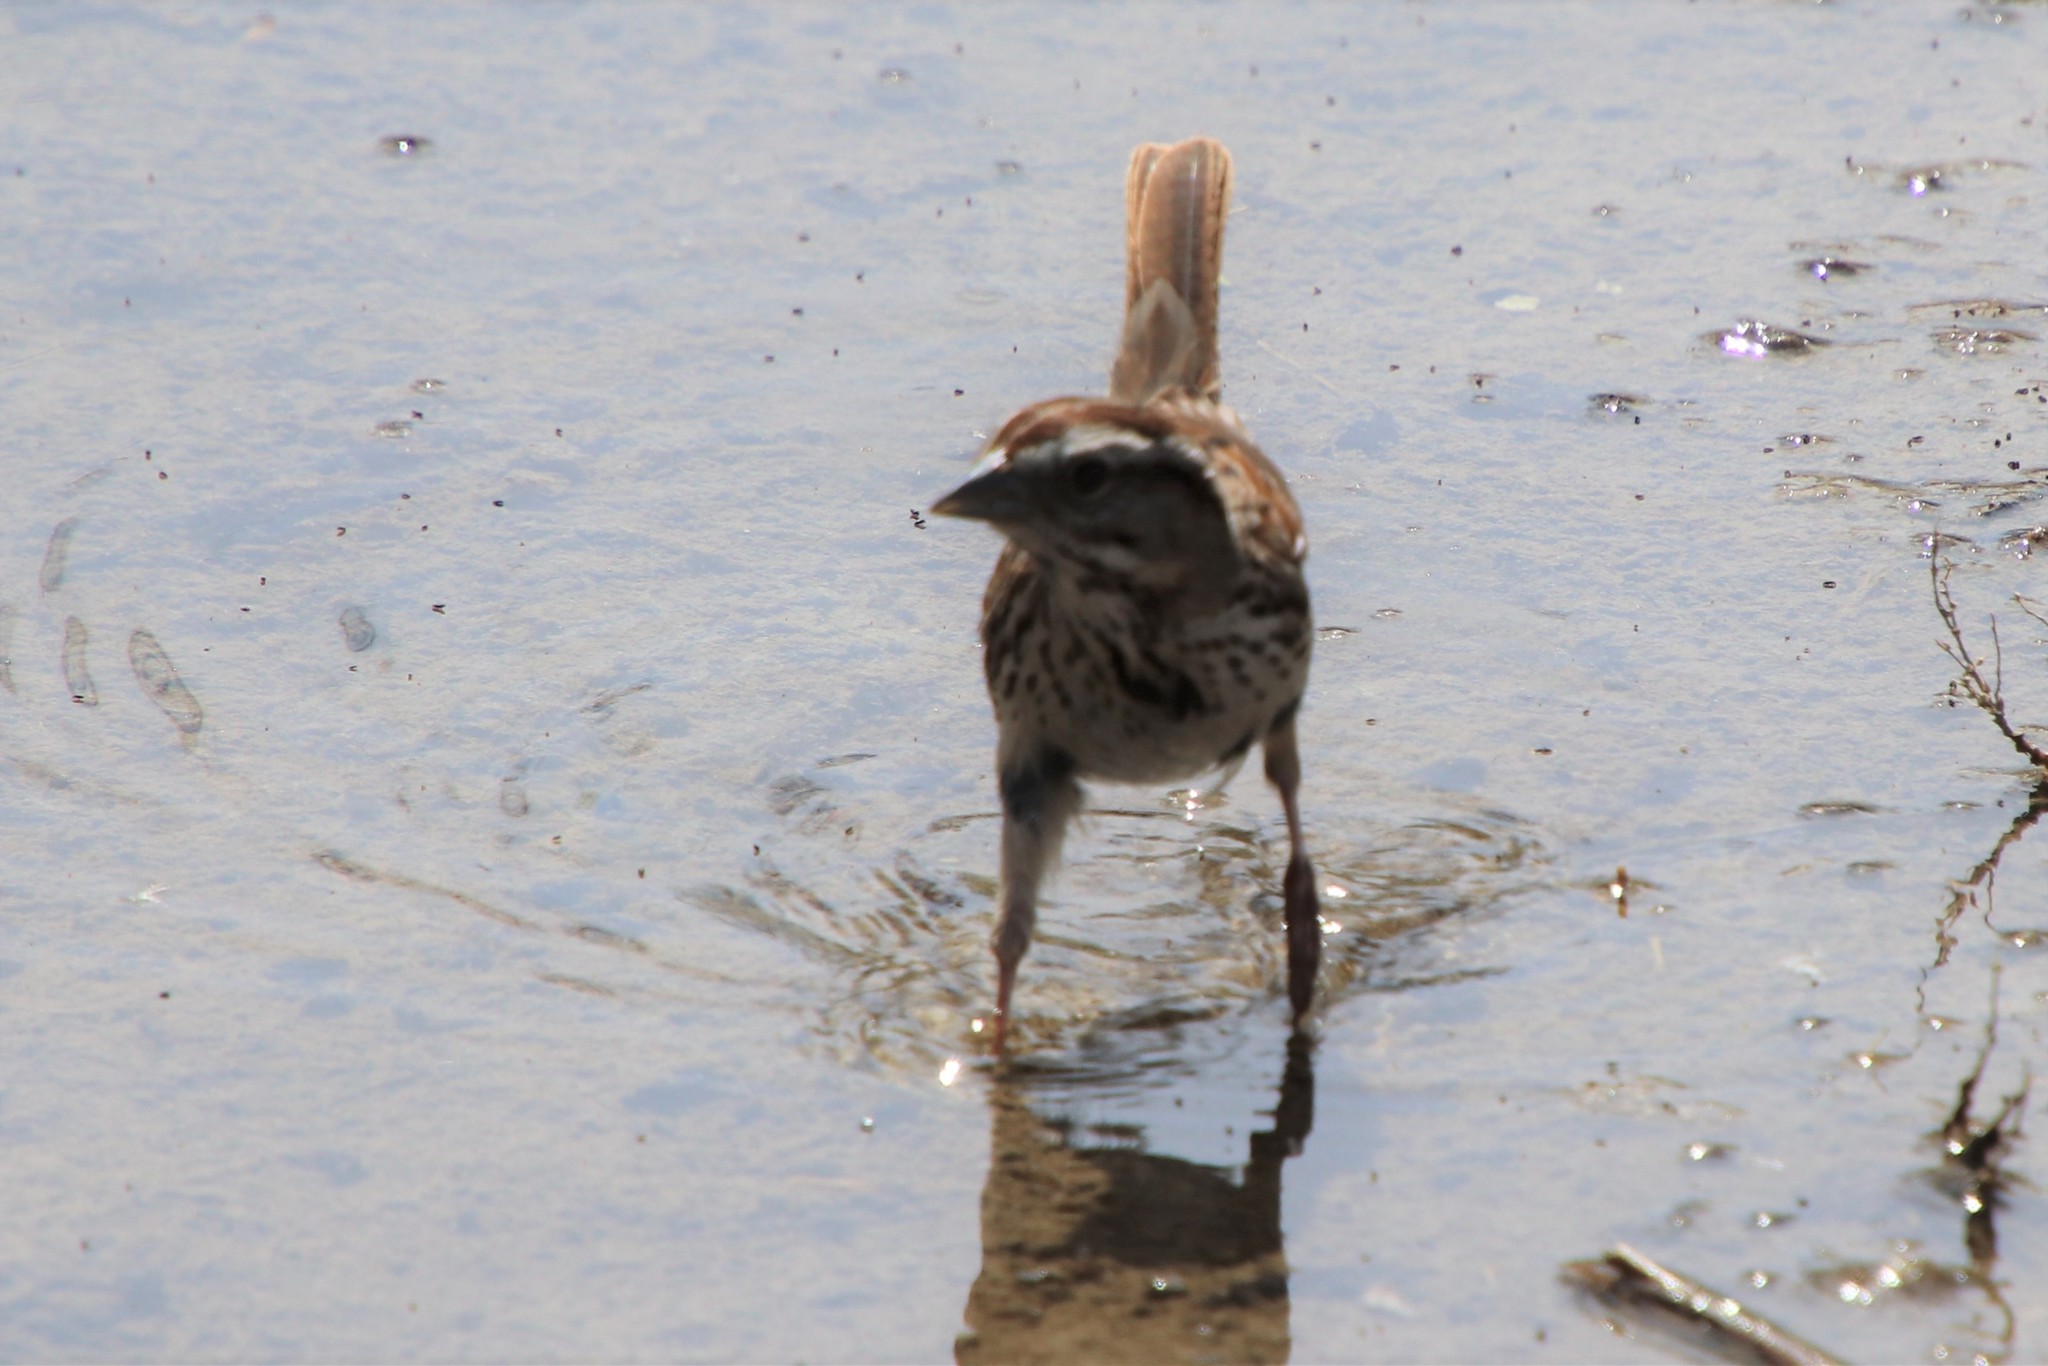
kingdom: Animalia
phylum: Chordata
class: Aves
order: Passeriformes
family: Passerellidae
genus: Melospiza
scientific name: Melospiza melodia
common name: Song sparrow
